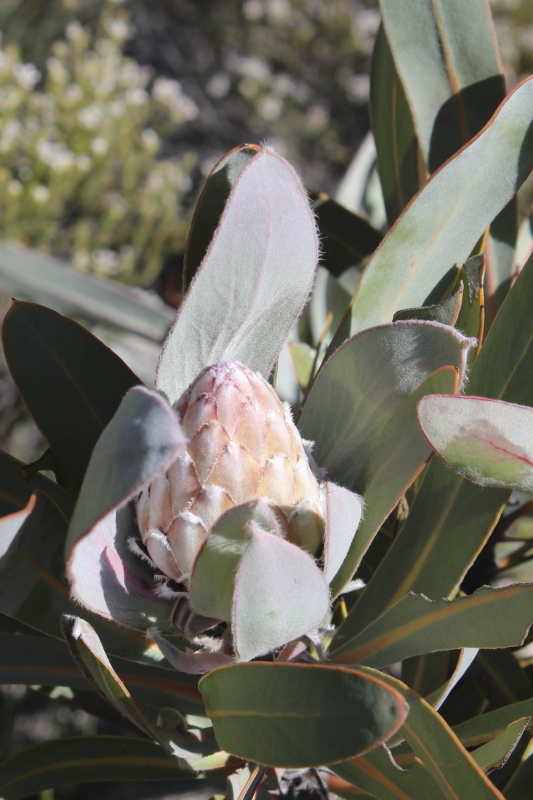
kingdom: Plantae
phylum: Tracheophyta
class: Magnoliopsida
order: Proteales
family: Proteaceae
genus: Protea
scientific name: Protea lorifolia
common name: Strap-leaved protea
